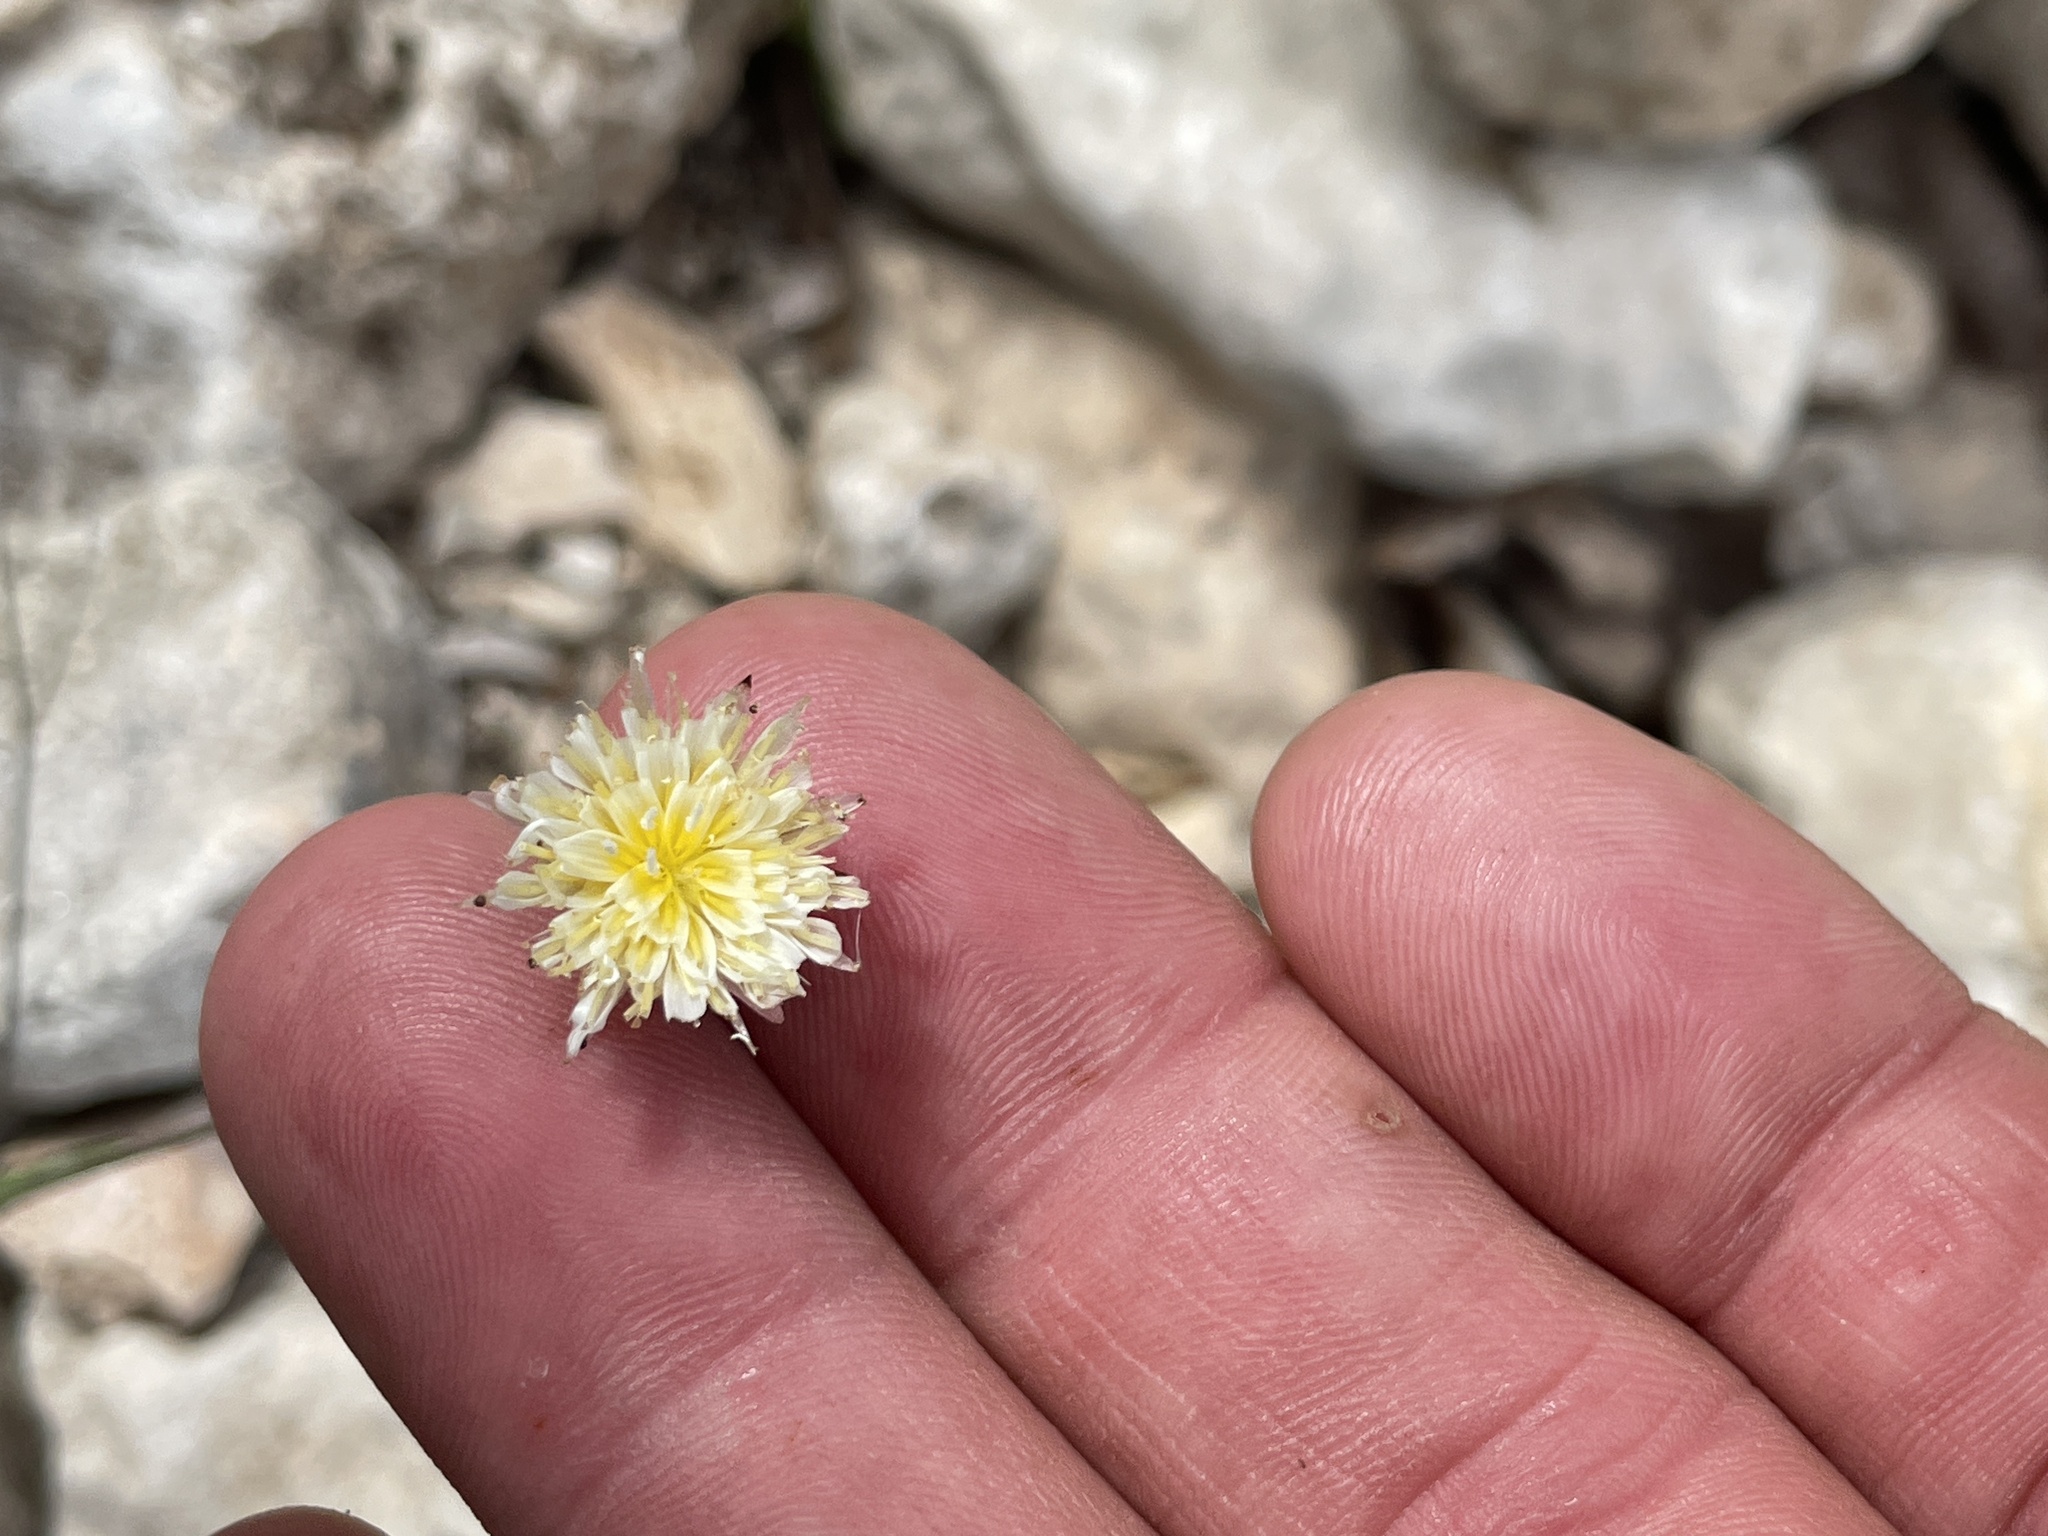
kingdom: Plantae
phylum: Tracheophyta
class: Magnoliopsida
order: Asterales
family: Asteraceae
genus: Pinaropappus
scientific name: Pinaropappus roseus
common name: Rock-lettuce
